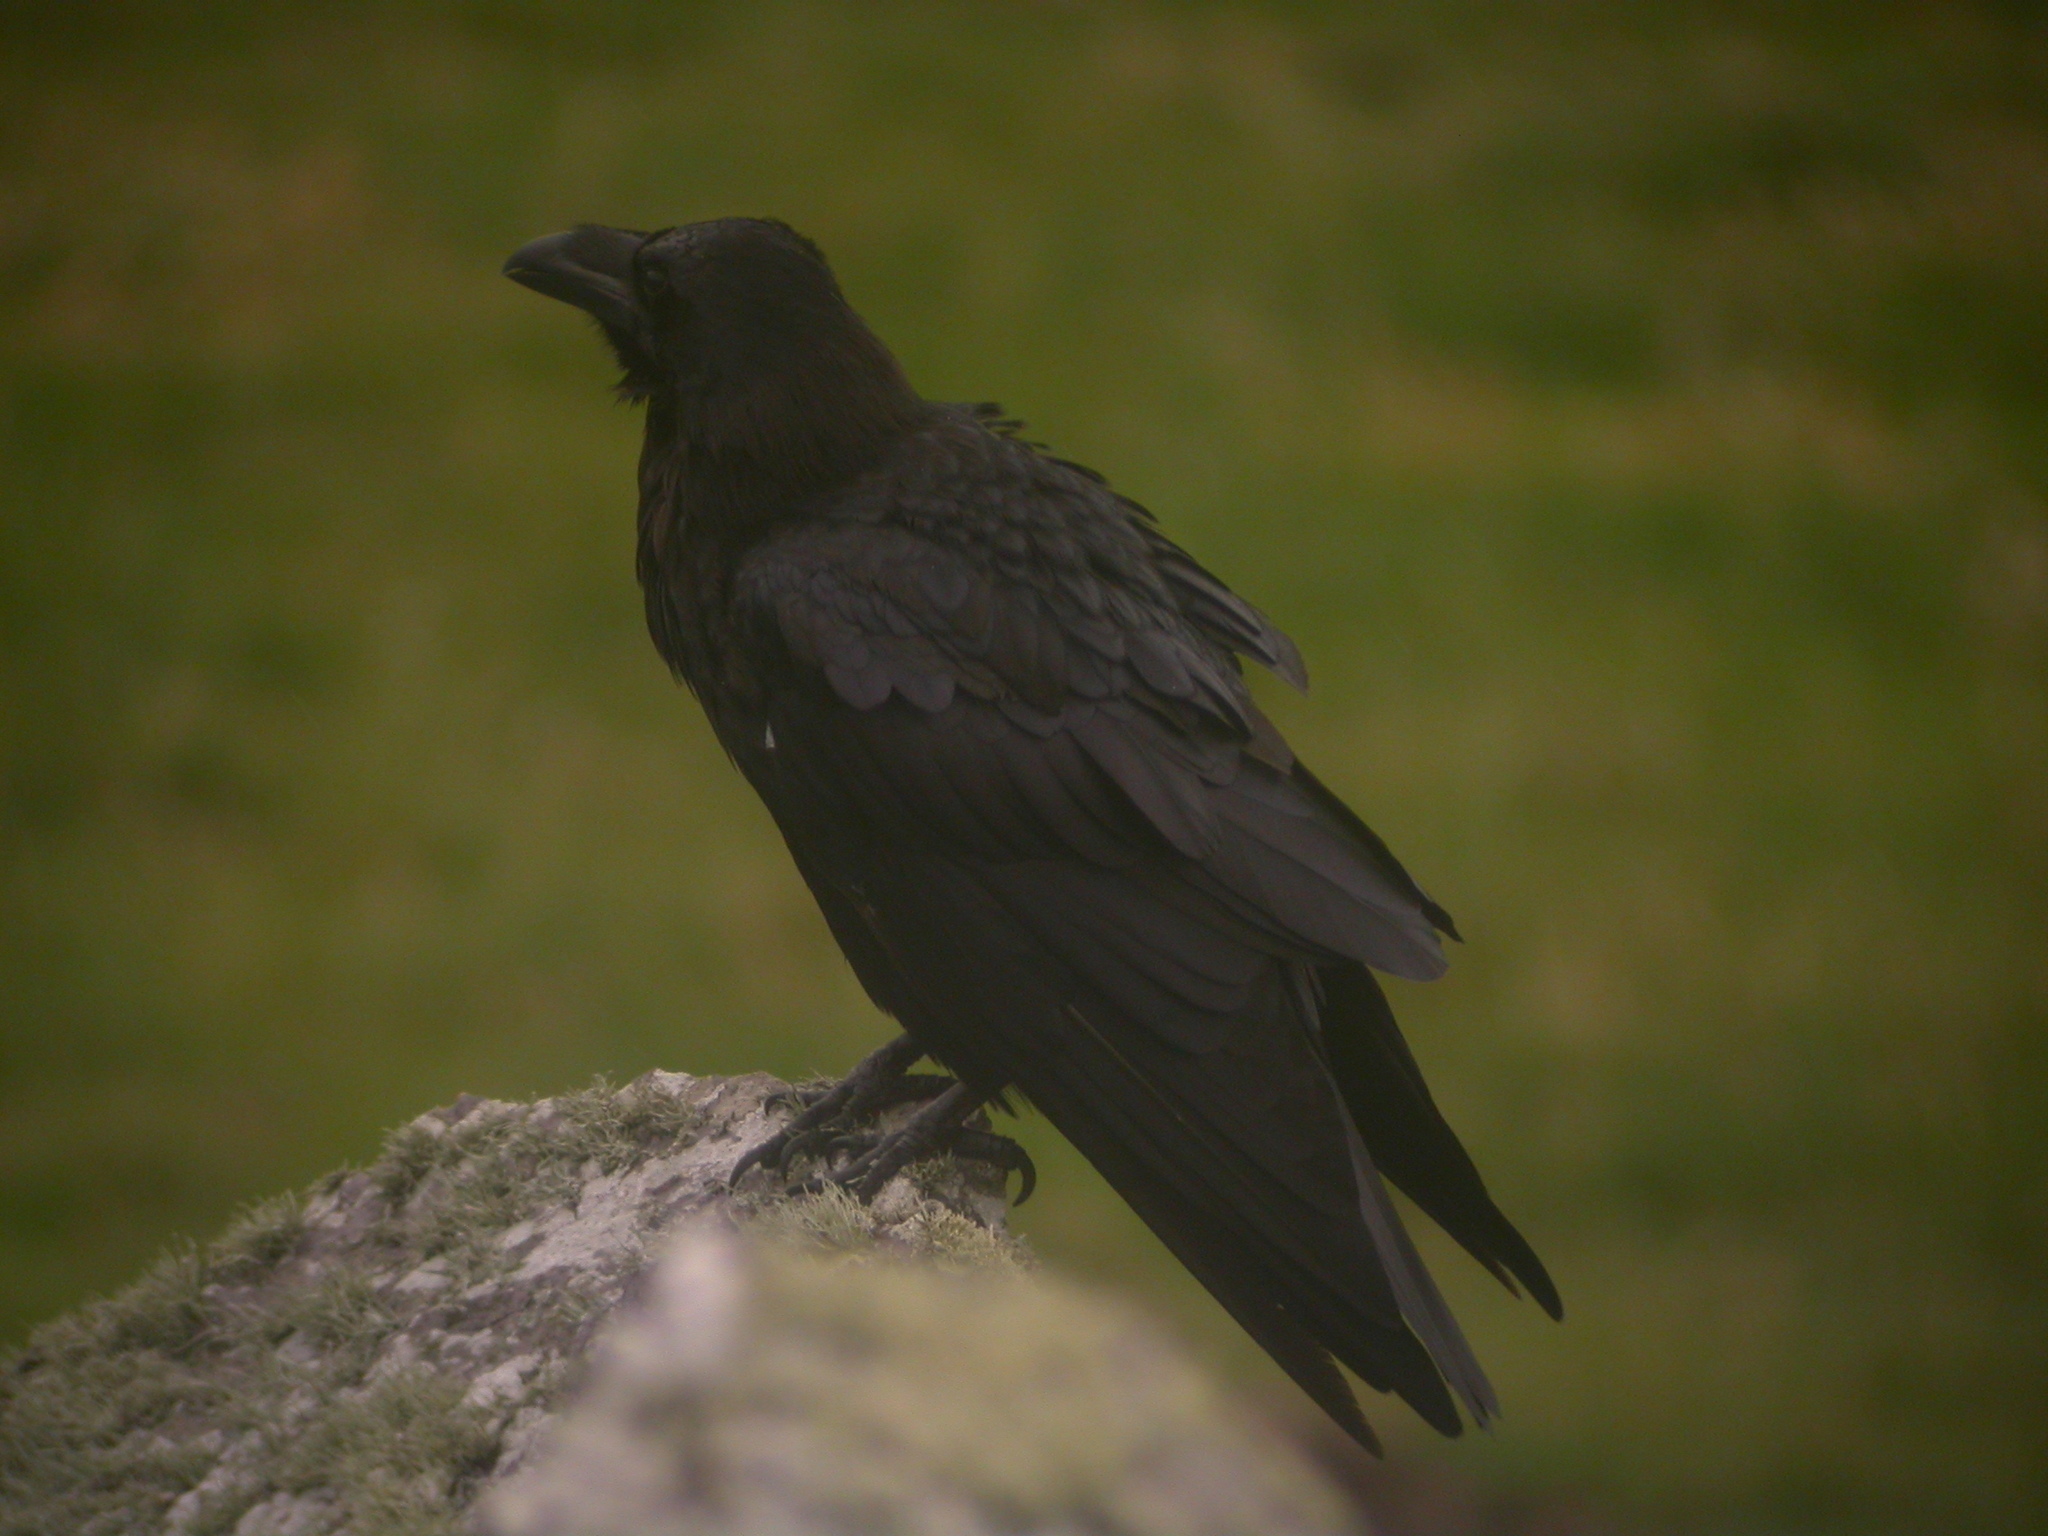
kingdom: Animalia
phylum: Chordata
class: Aves
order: Passeriformes
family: Corvidae
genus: Corvus
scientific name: Corvus corax
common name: Common raven
